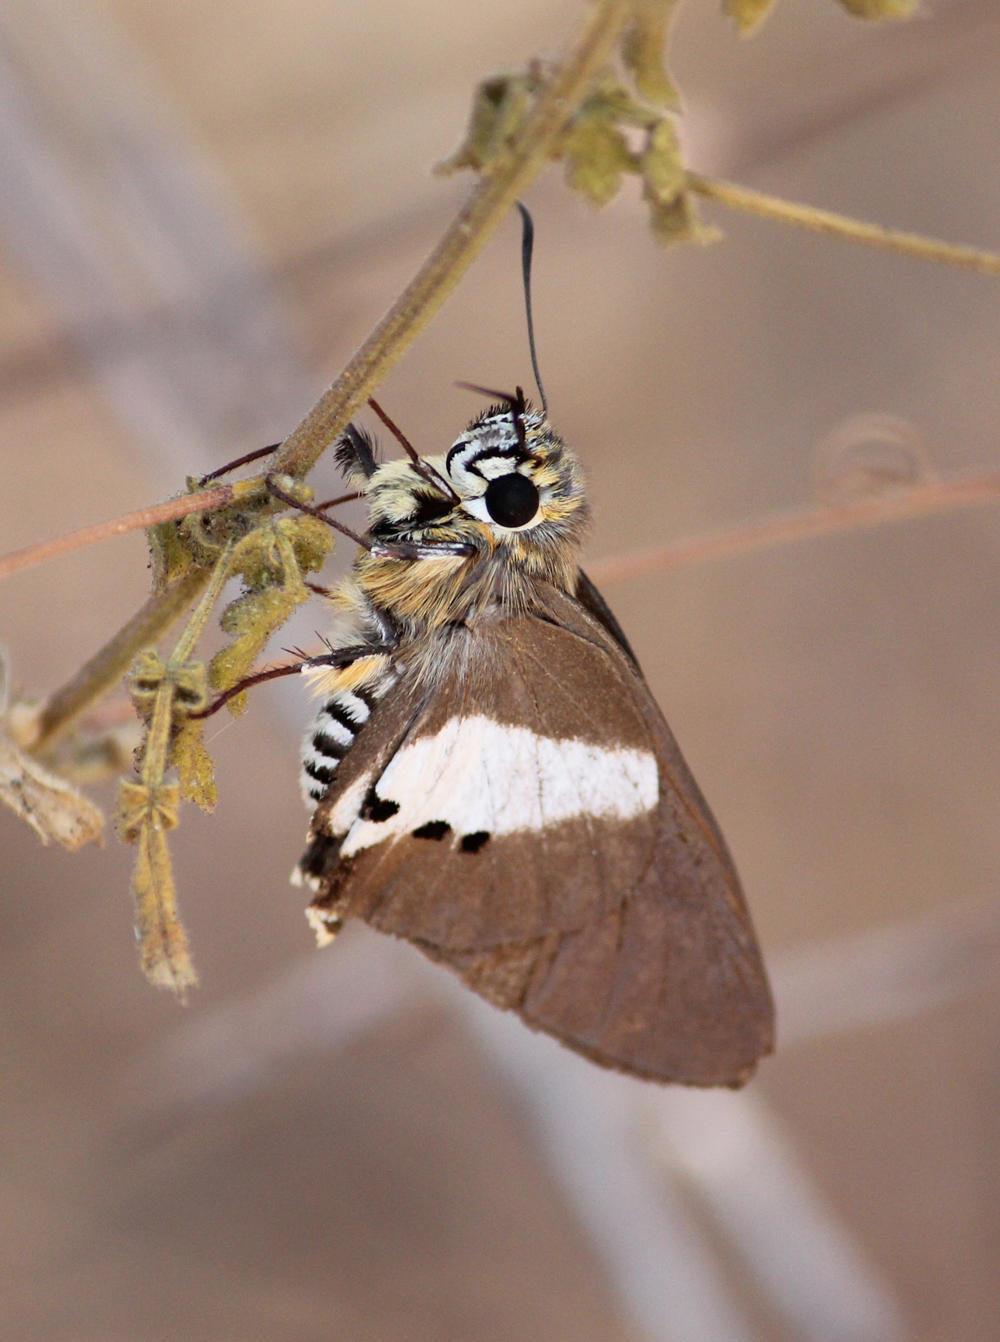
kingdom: Animalia
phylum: Arthropoda
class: Insecta
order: Lepidoptera
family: Hesperiidae
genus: Coeliades
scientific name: Coeliades pisistratus
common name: Two-pip policeman
